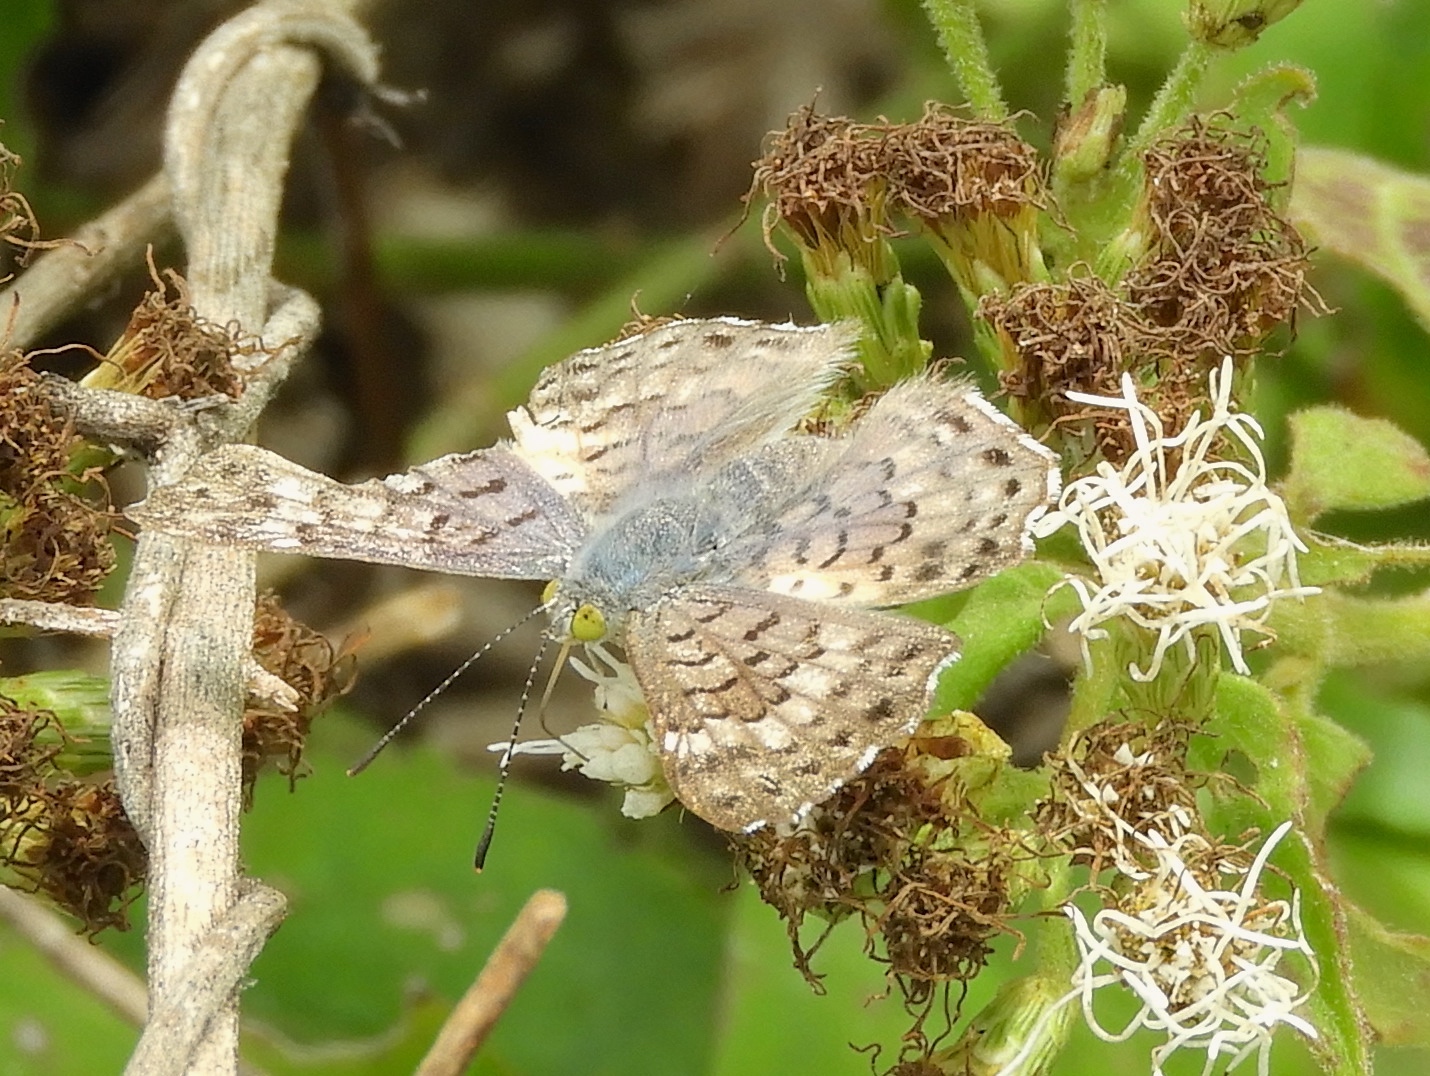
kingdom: Animalia
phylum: Arthropoda
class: Insecta
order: Diptera
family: Acroceridae
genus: Lasia
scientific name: Lasia
